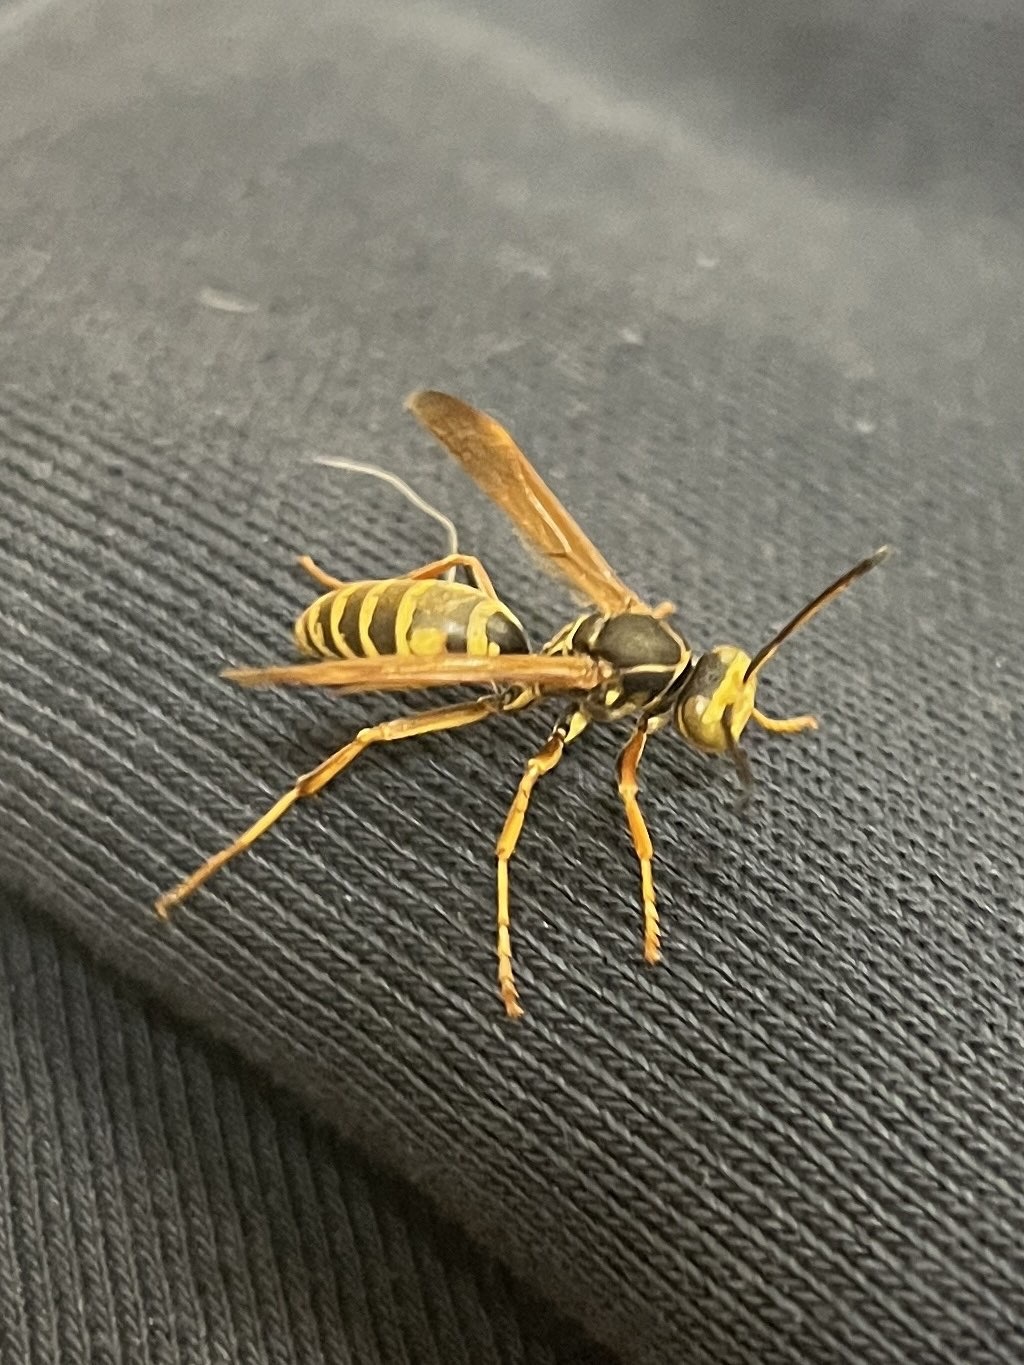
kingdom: Animalia
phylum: Arthropoda
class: Insecta
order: Hymenoptera
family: Eumenidae
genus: Polistes
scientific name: Polistes fuscatus
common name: Dark paper wasp
